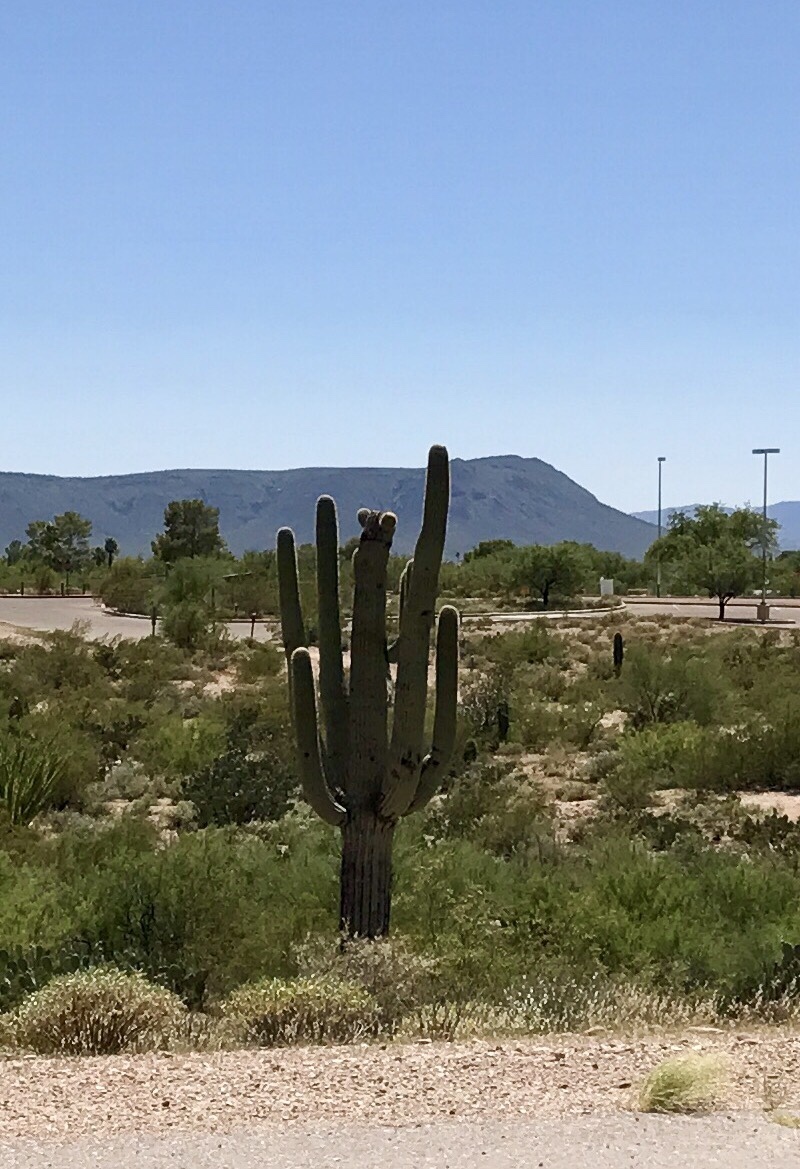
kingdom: Plantae
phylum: Tracheophyta
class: Magnoliopsida
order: Caryophyllales
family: Cactaceae
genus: Carnegiea
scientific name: Carnegiea gigantea
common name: Saguaro
